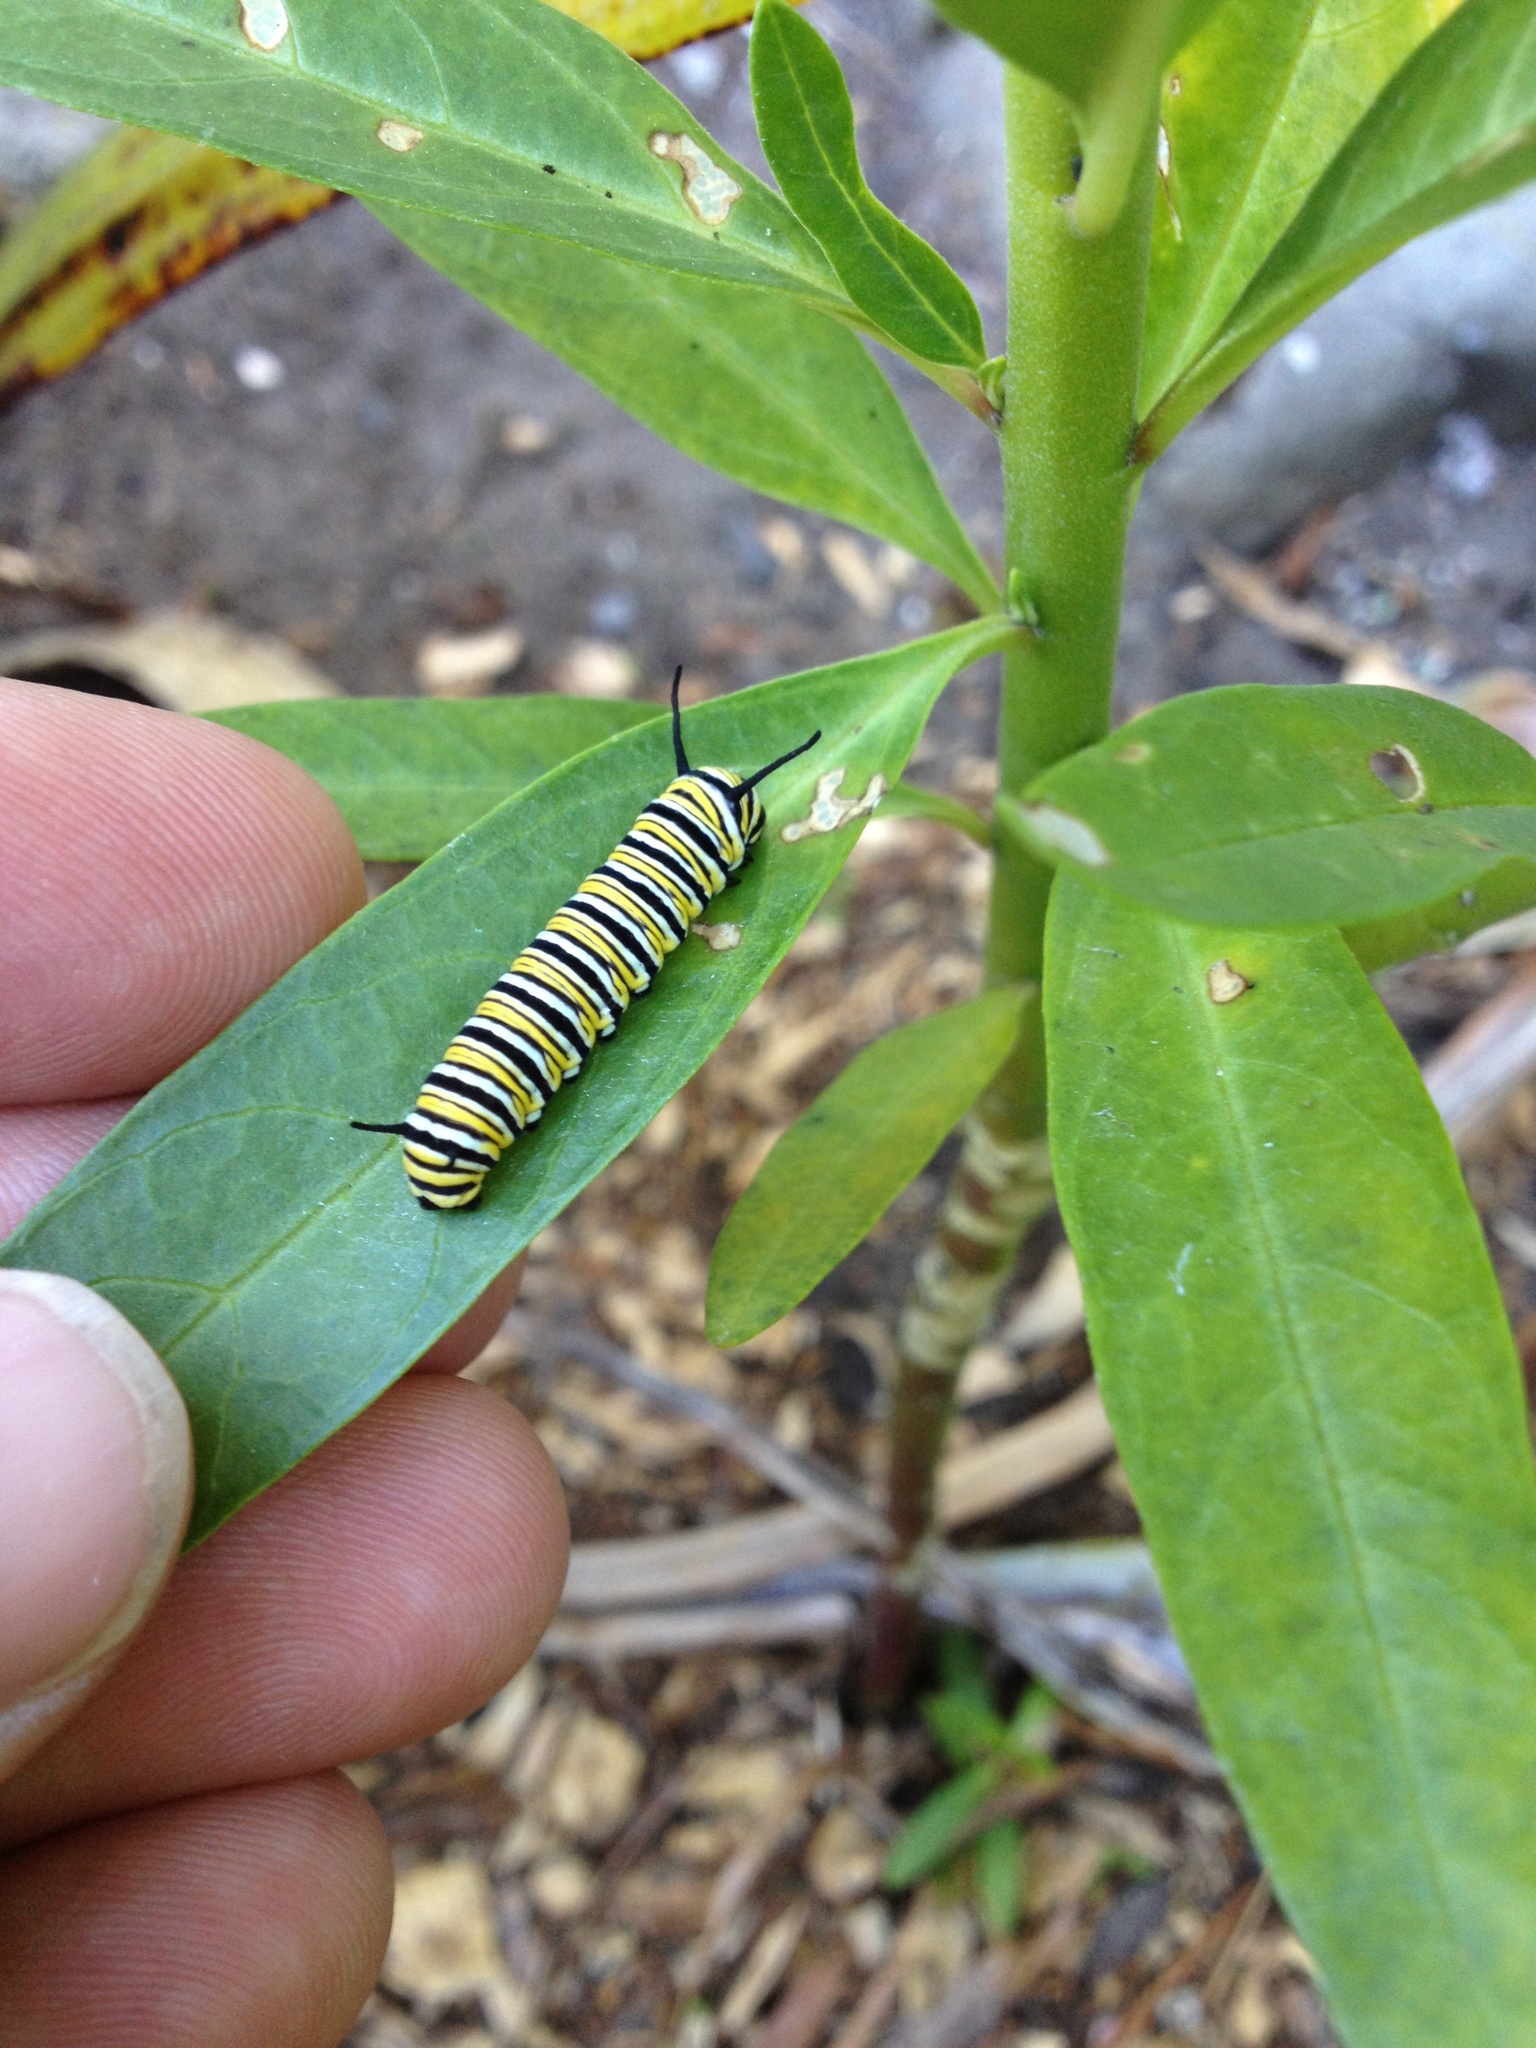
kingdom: Animalia
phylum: Arthropoda
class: Insecta
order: Lepidoptera
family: Nymphalidae
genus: Danaus
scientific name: Danaus plexippus
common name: Monarch
